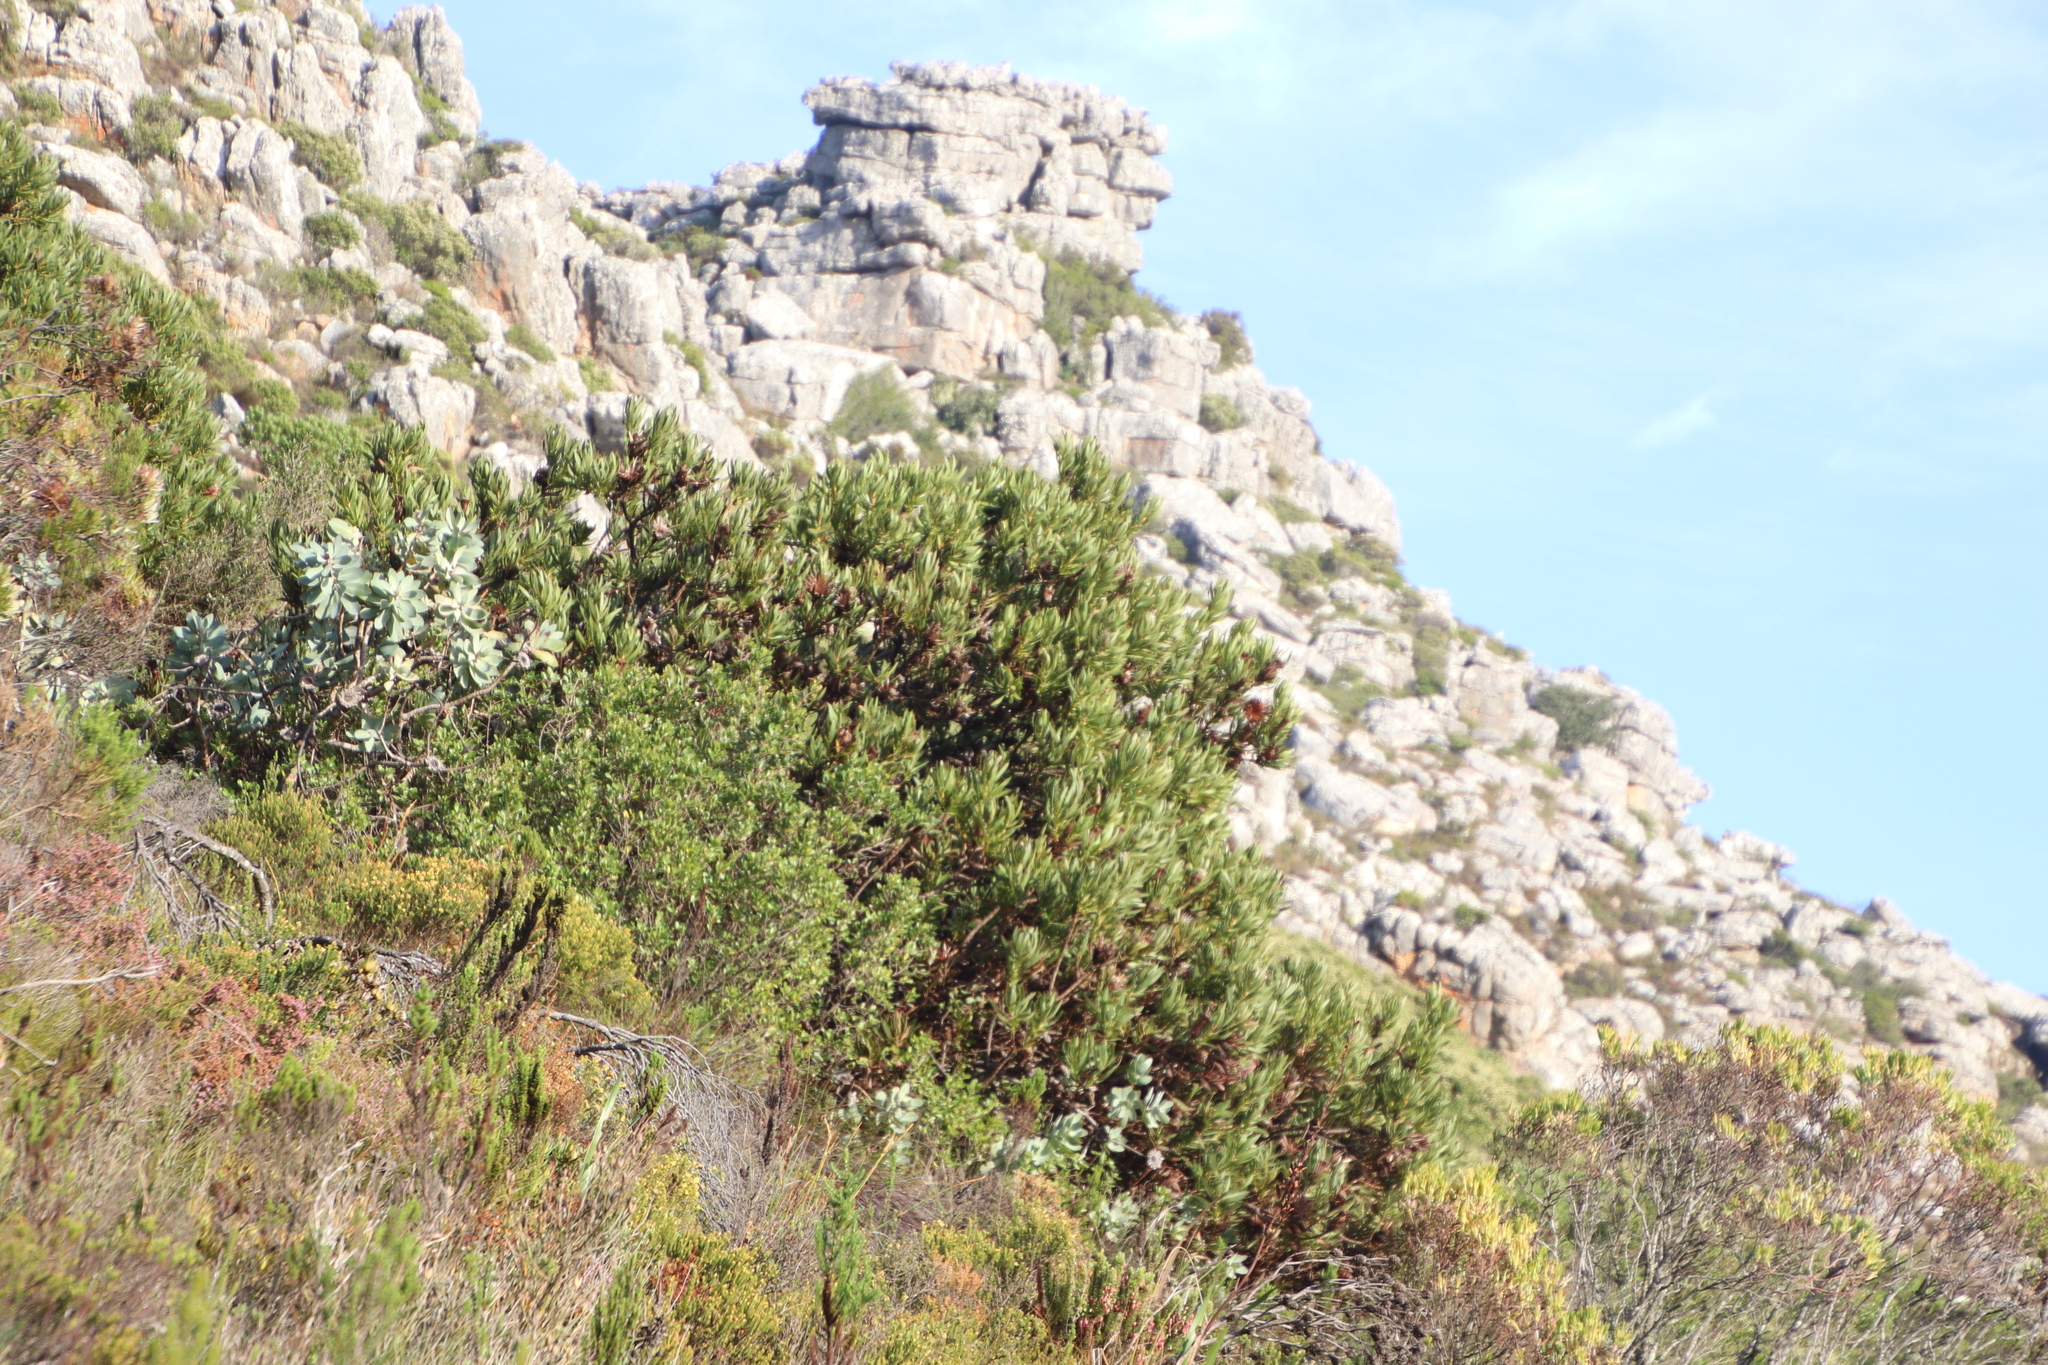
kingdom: Plantae
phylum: Tracheophyta
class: Magnoliopsida
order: Proteales
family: Proteaceae
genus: Protea
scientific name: Protea lepidocarpodendron
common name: Black-bearded protea
